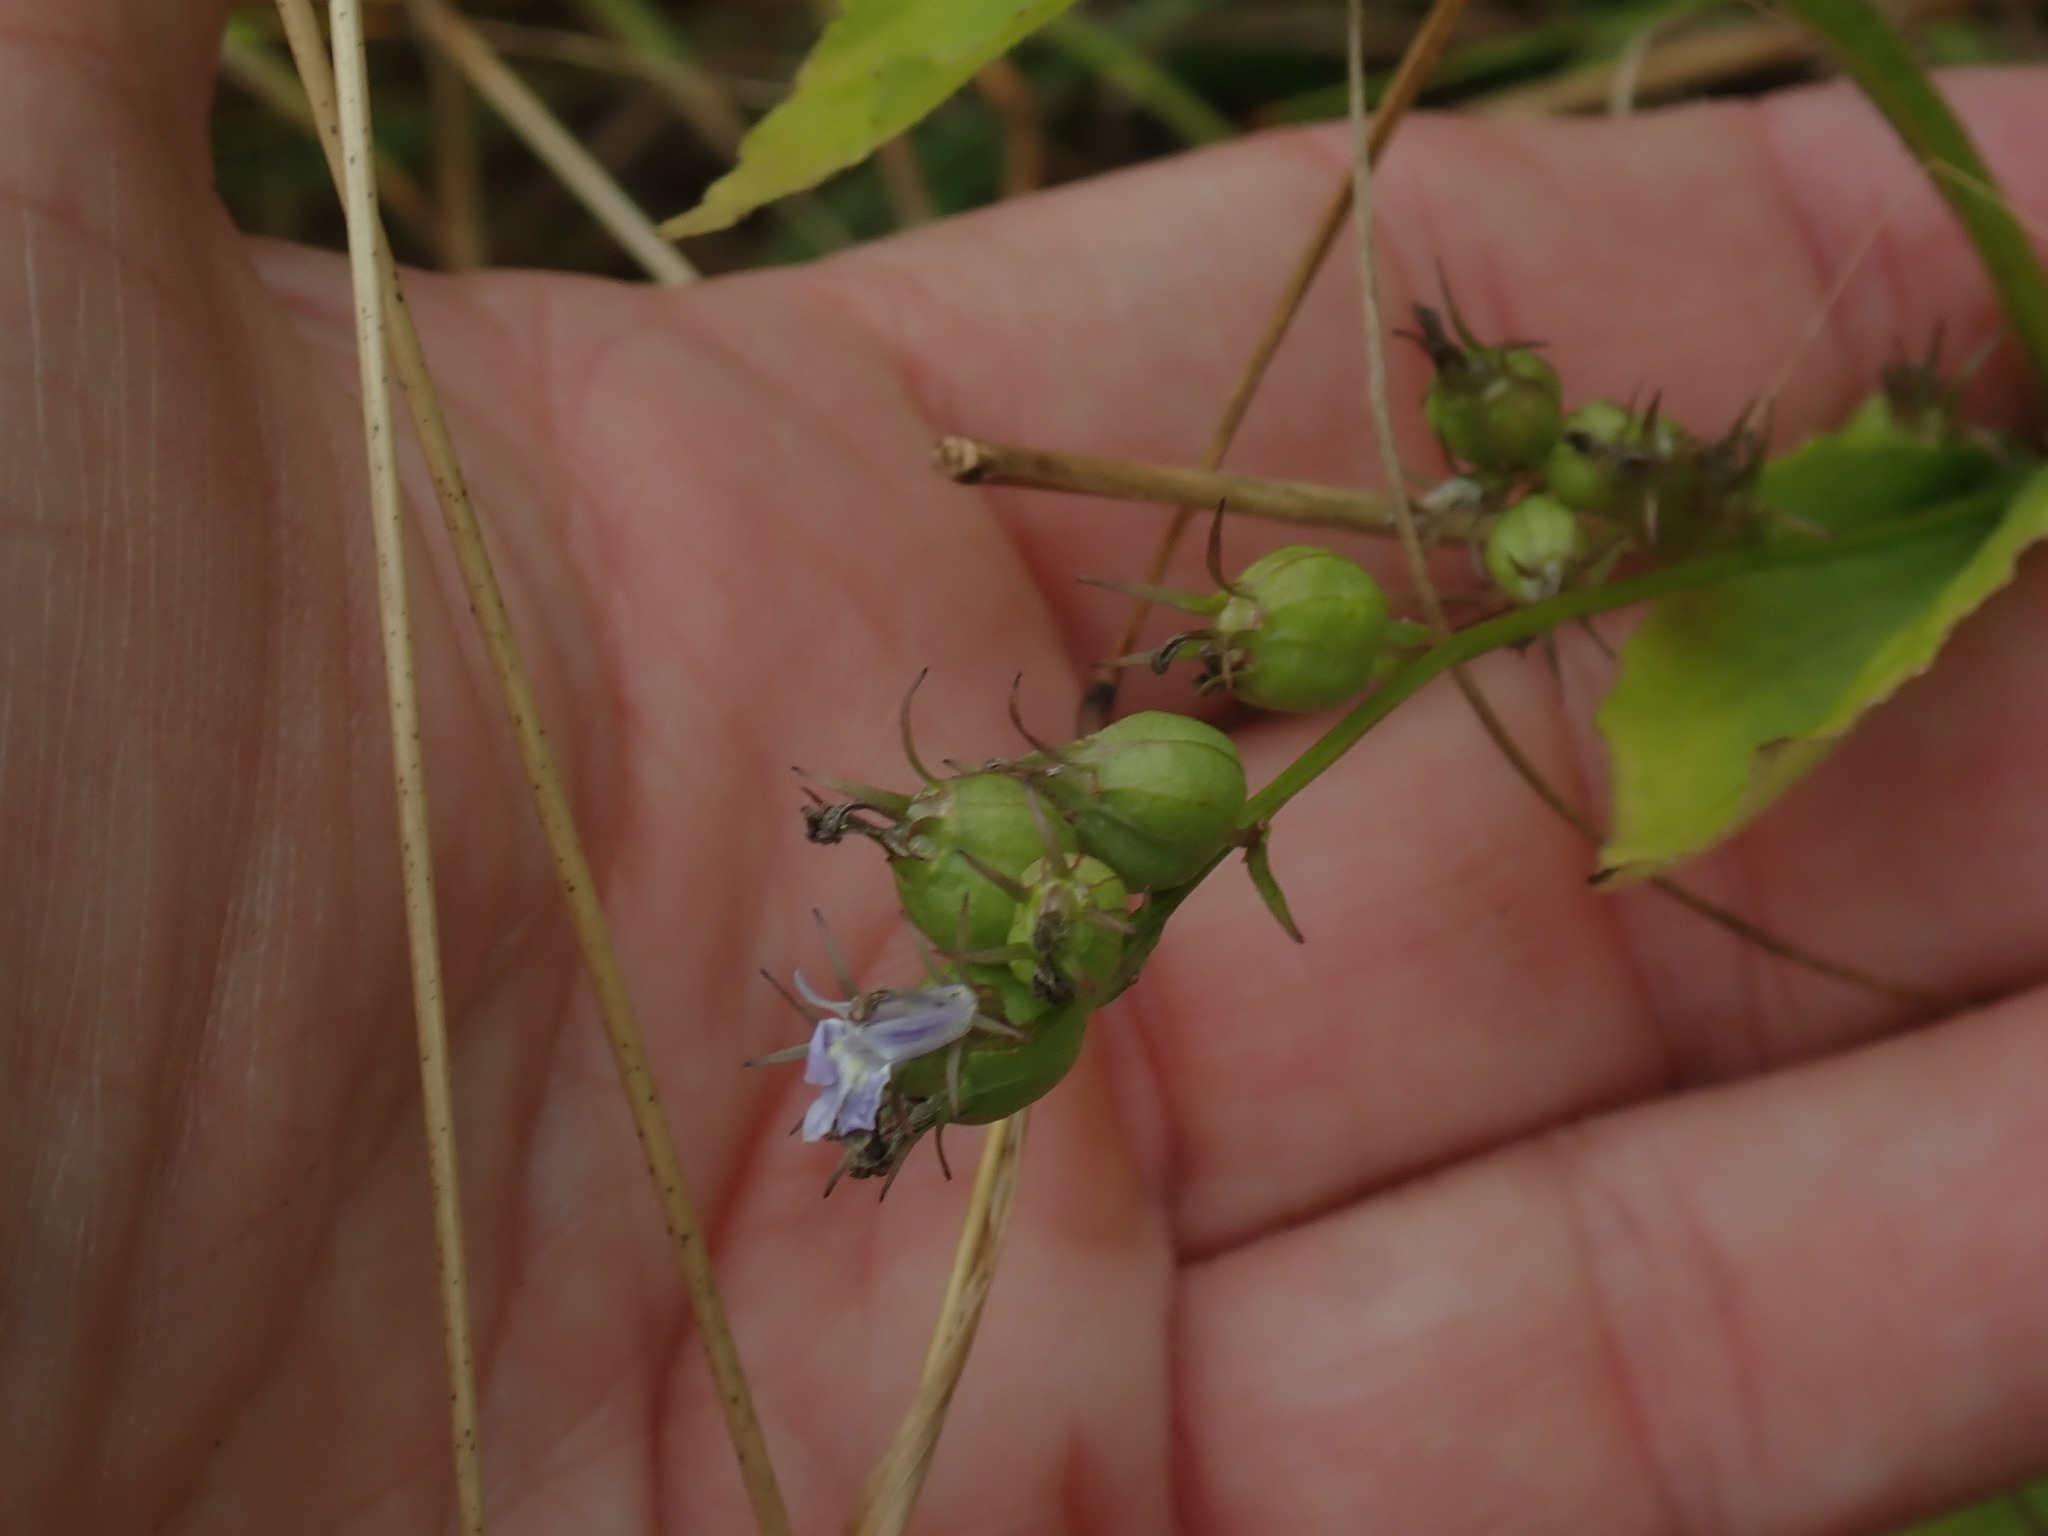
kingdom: Plantae
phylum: Tracheophyta
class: Magnoliopsida
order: Asterales
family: Campanulaceae
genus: Lobelia
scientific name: Lobelia inflata
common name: Indian tobacco
